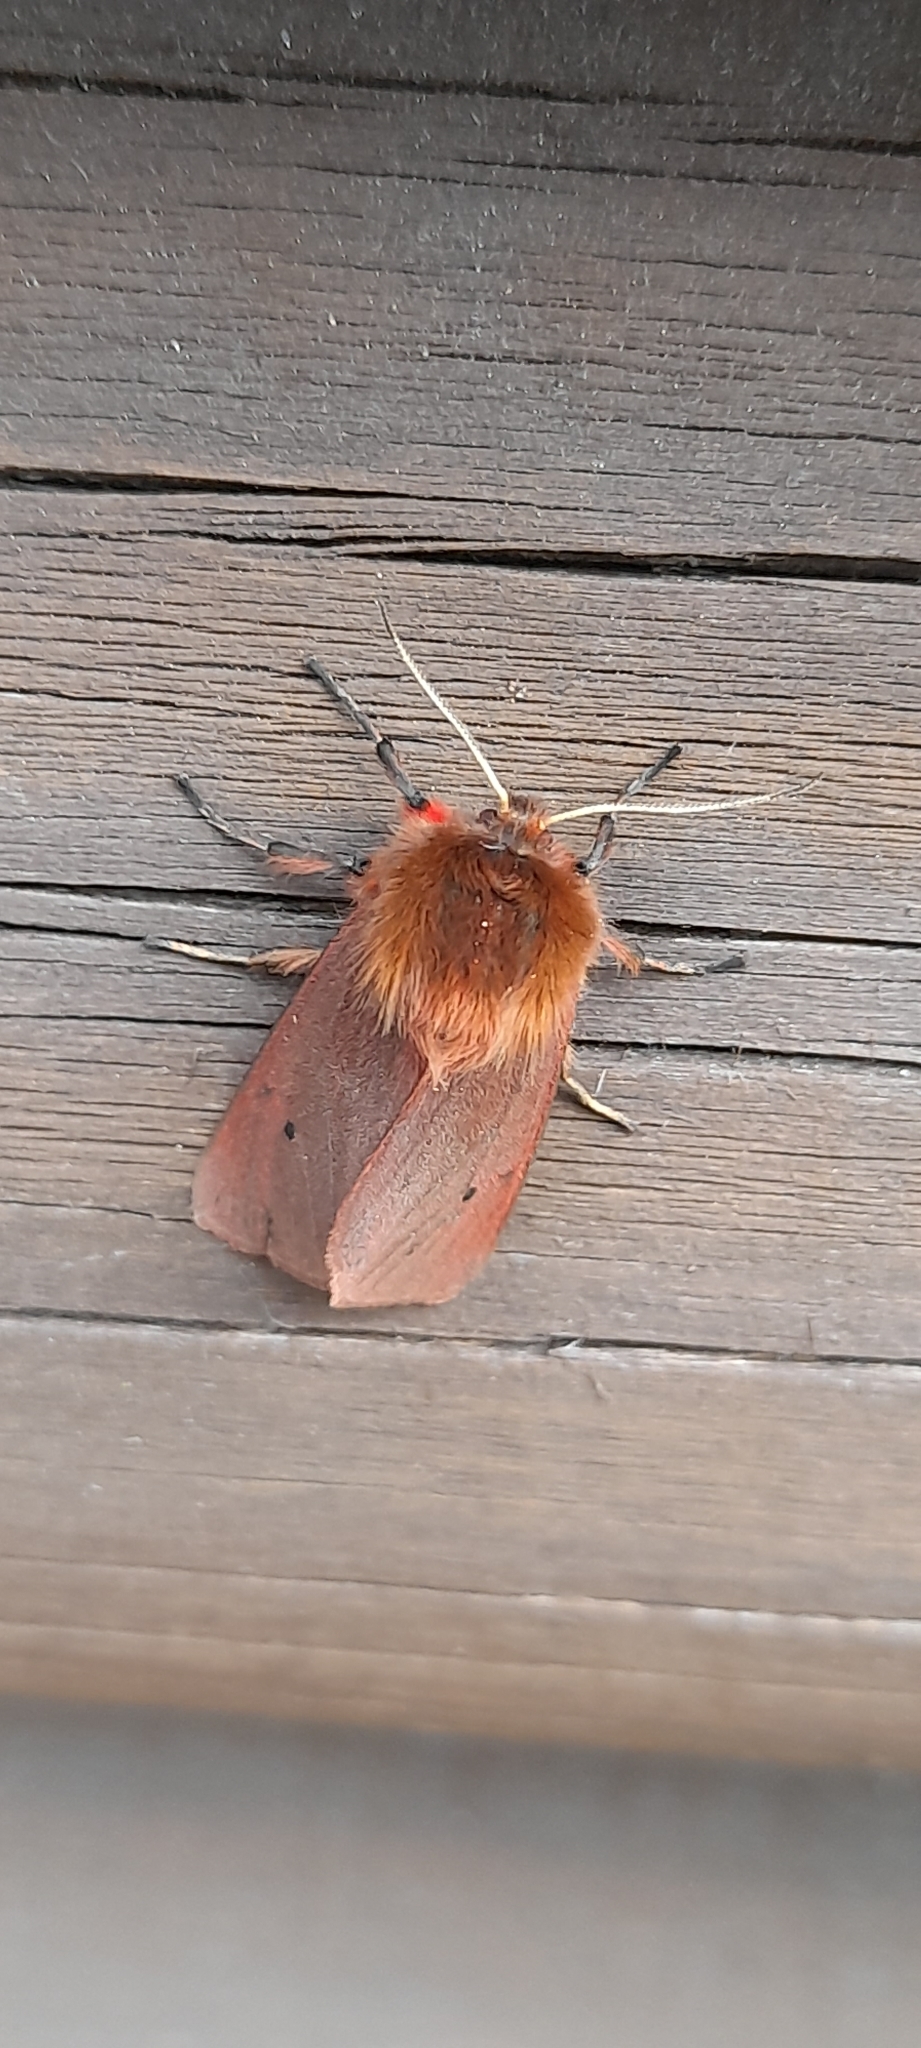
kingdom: Animalia
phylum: Arthropoda
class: Insecta
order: Lepidoptera
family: Erebidae
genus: Phragmatobia
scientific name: Phragmatobia fuliginosa
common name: Ruby tiger
